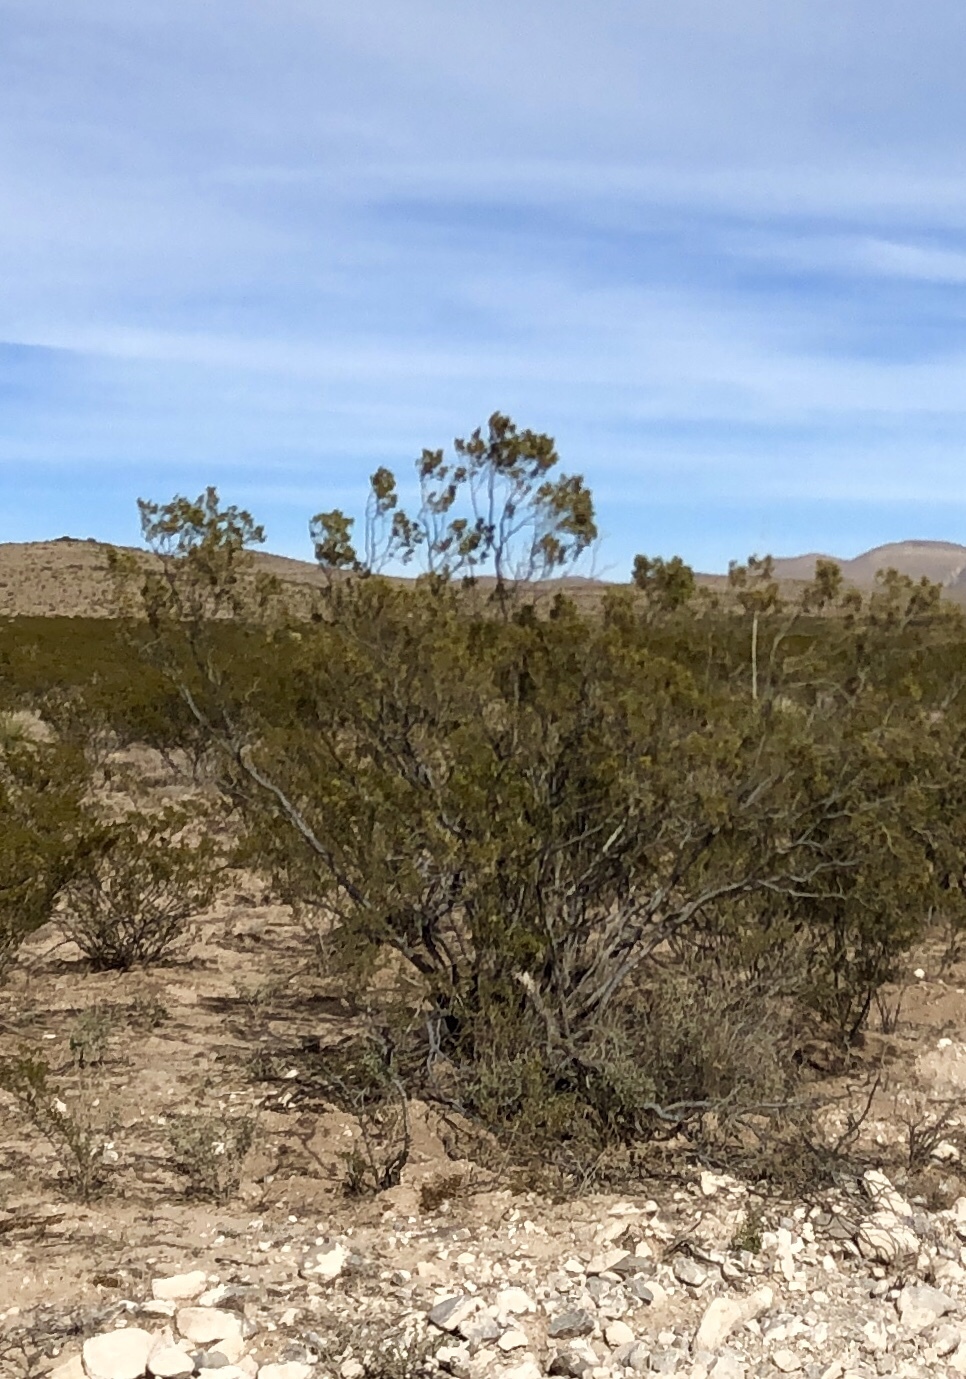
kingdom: Plantae
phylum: Tracheophyta
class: Magnoliopsida
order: Zygophyllales
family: Zygophyllaceae
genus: Larrea
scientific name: Larrea tridentata
